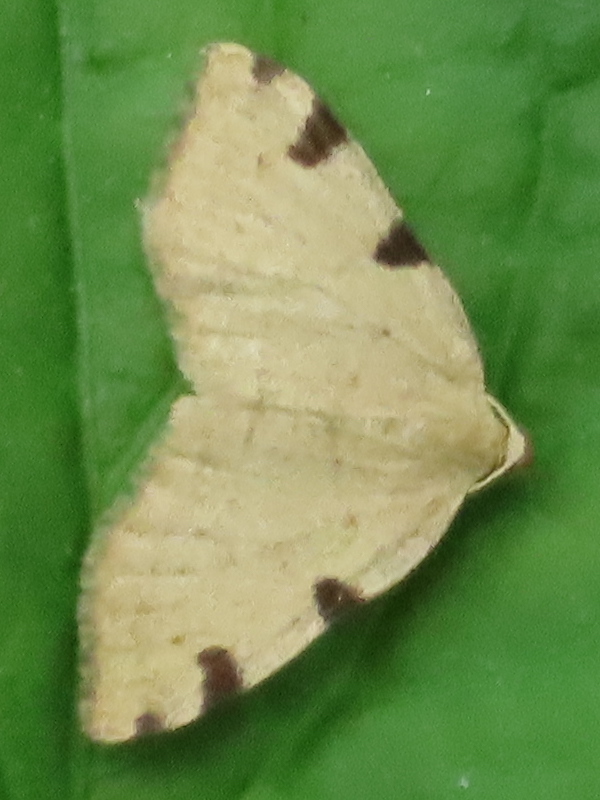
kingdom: Animalia
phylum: Arthropoda
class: Insecta
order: Lepidoptera
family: Geometridae
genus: Heterophleps
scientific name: Heterophleps triguttaria
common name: Three-spotted fillip
